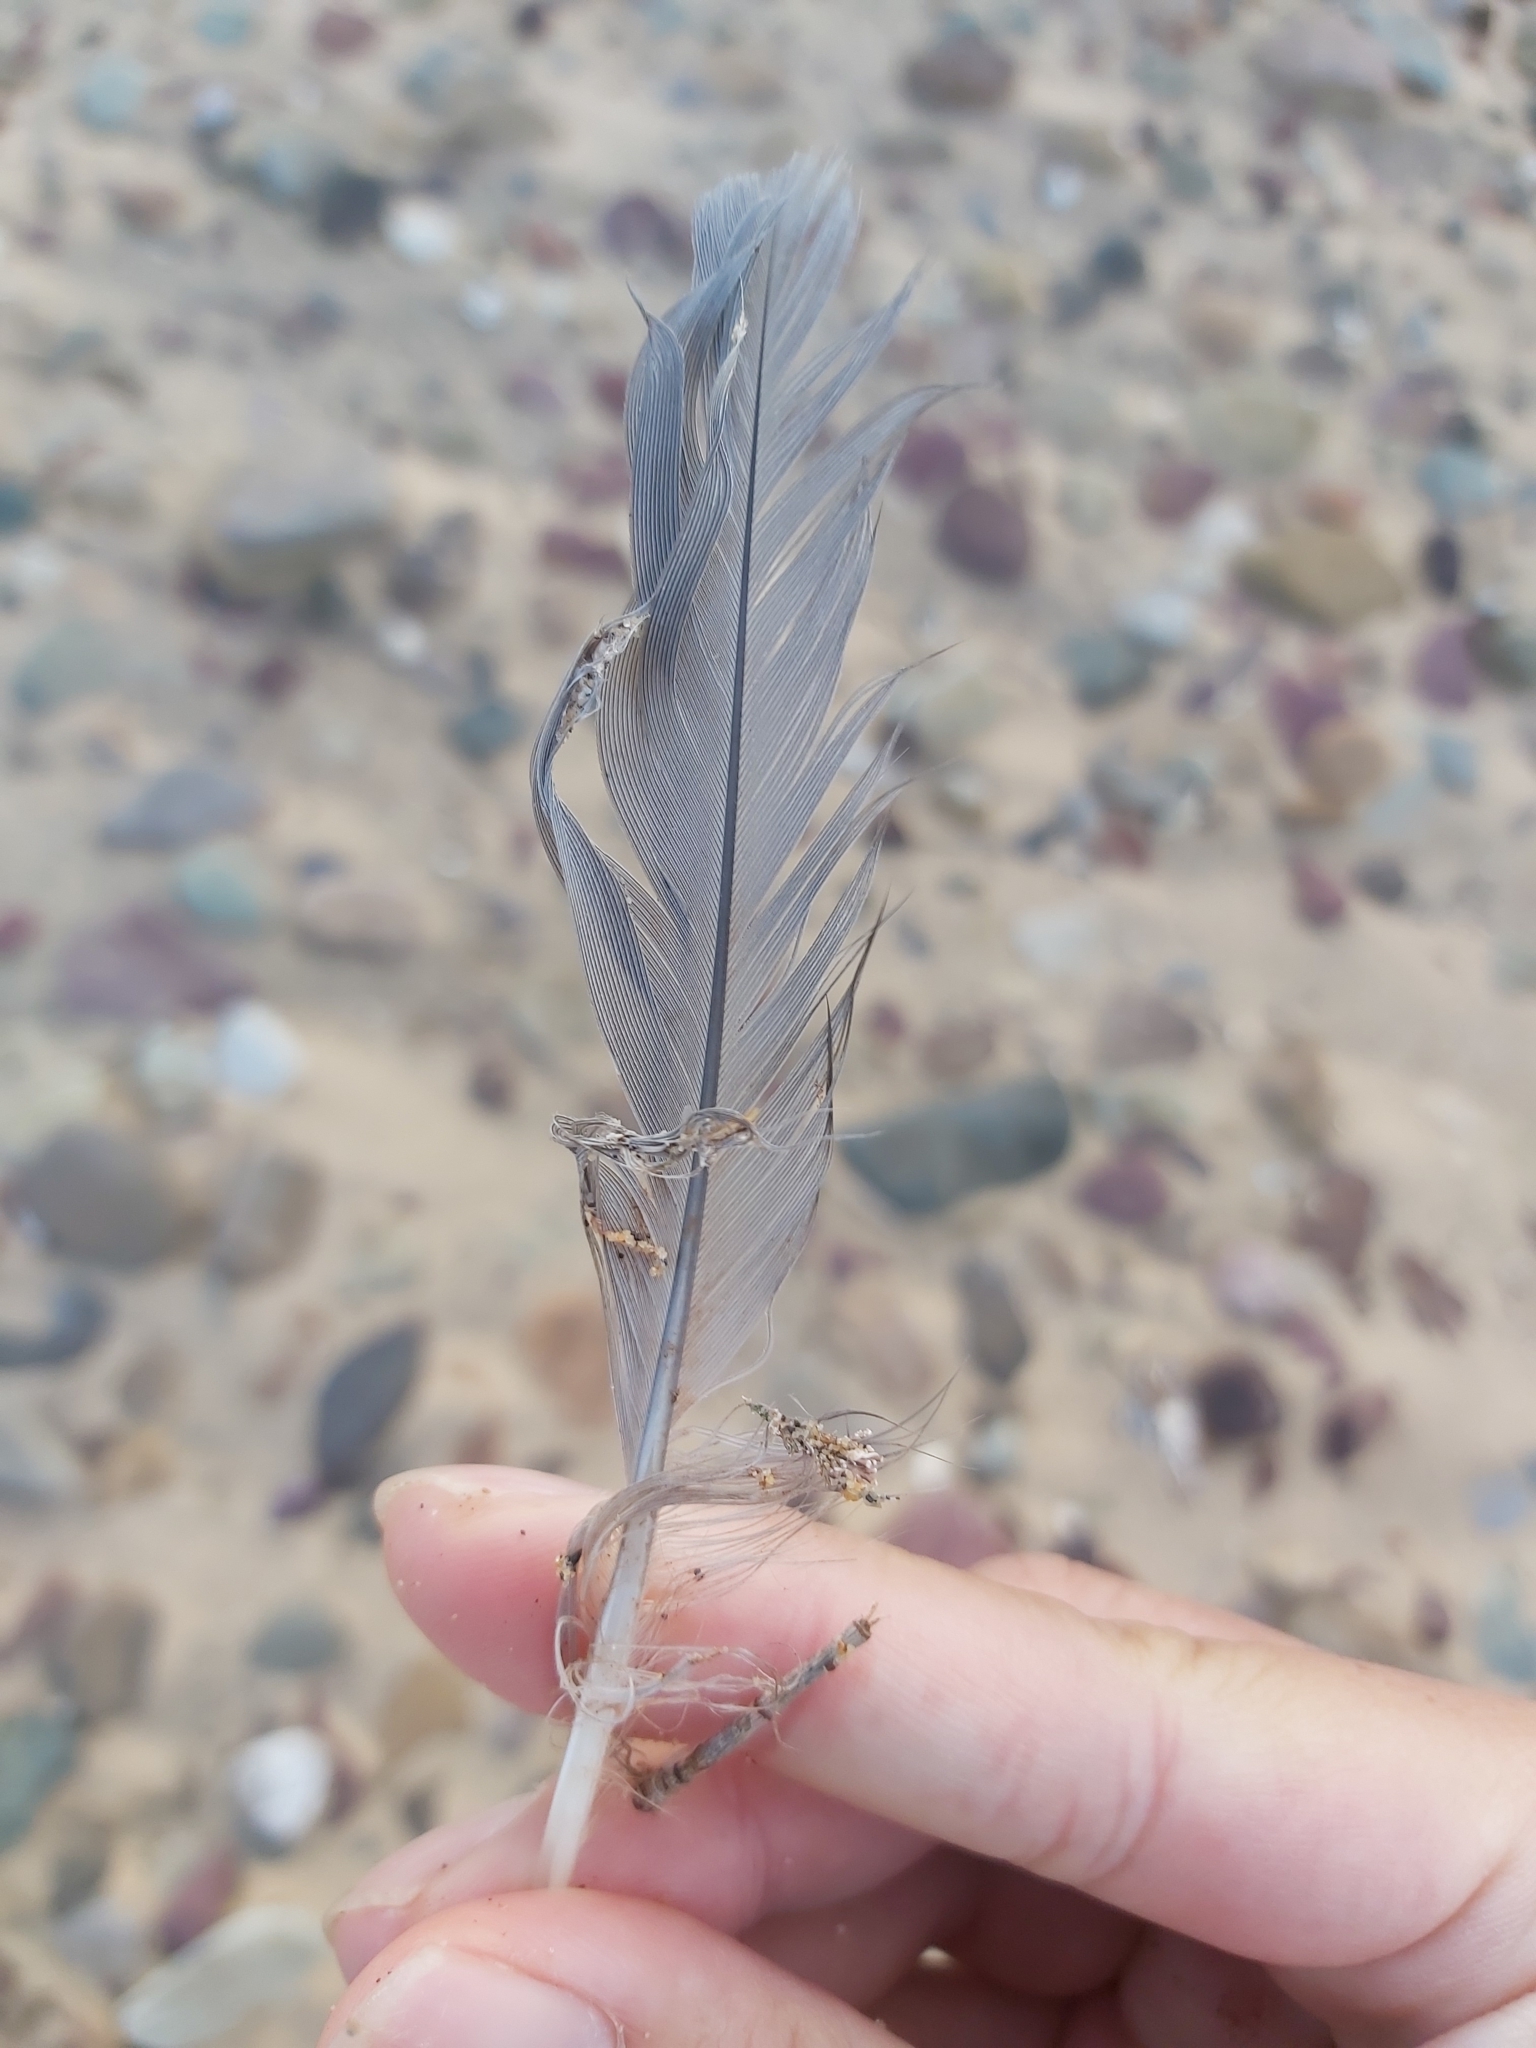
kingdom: Animalia
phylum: Chordata
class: Aves
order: Pelecaniformes
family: Ardeidae
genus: Egretta
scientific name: Egretta novaehollandiae
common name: White-faced heron
